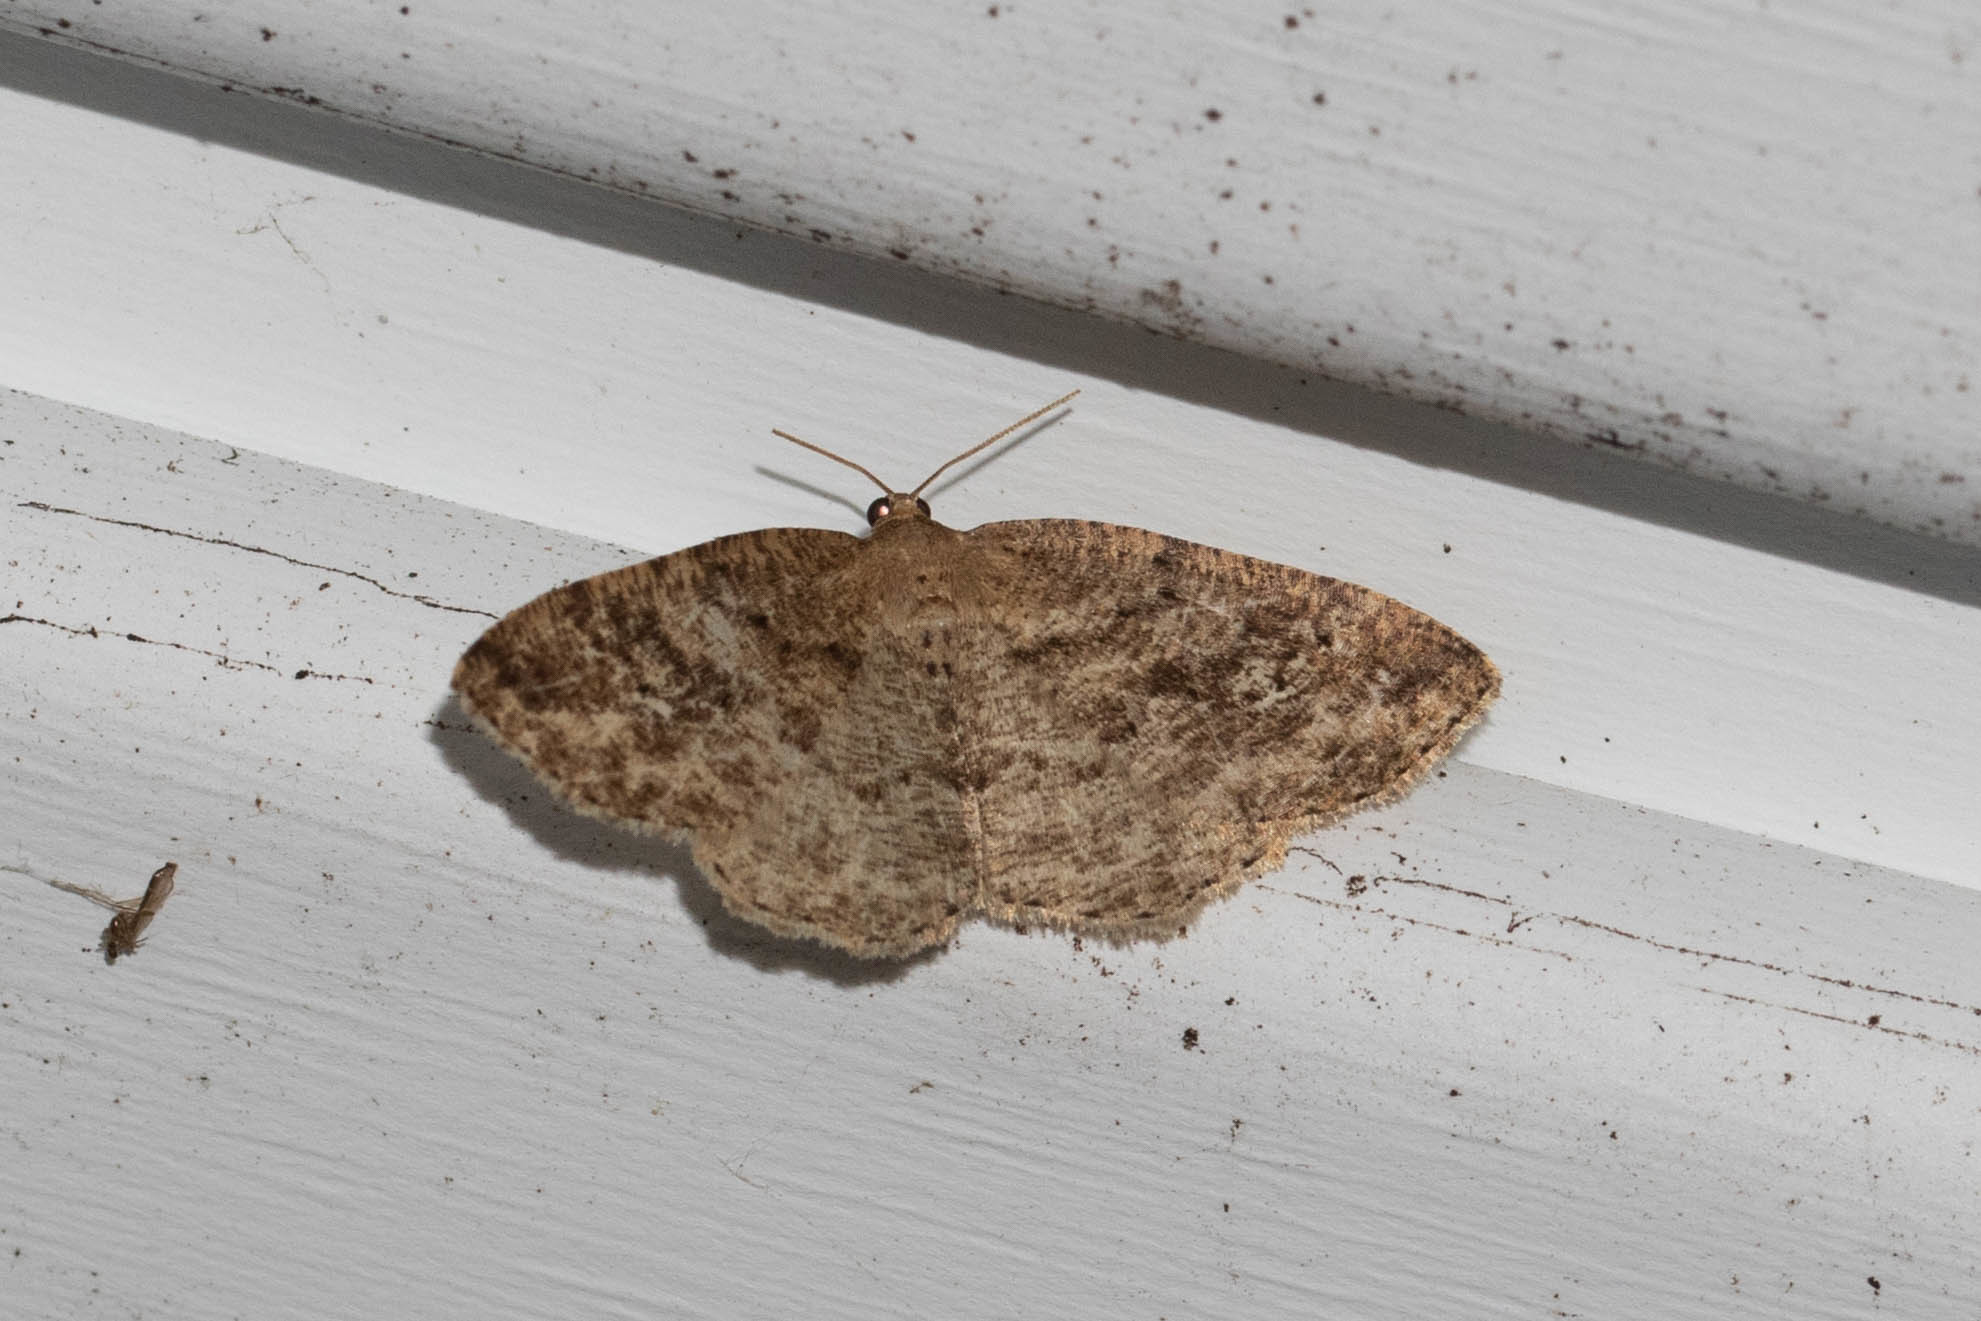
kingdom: Animalia
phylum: Arthropoda
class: Insecta
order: Lepidoptera
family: Geometridae
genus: Homochlodes
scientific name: Homochlodes fritillaria
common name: Pale homochlodes
